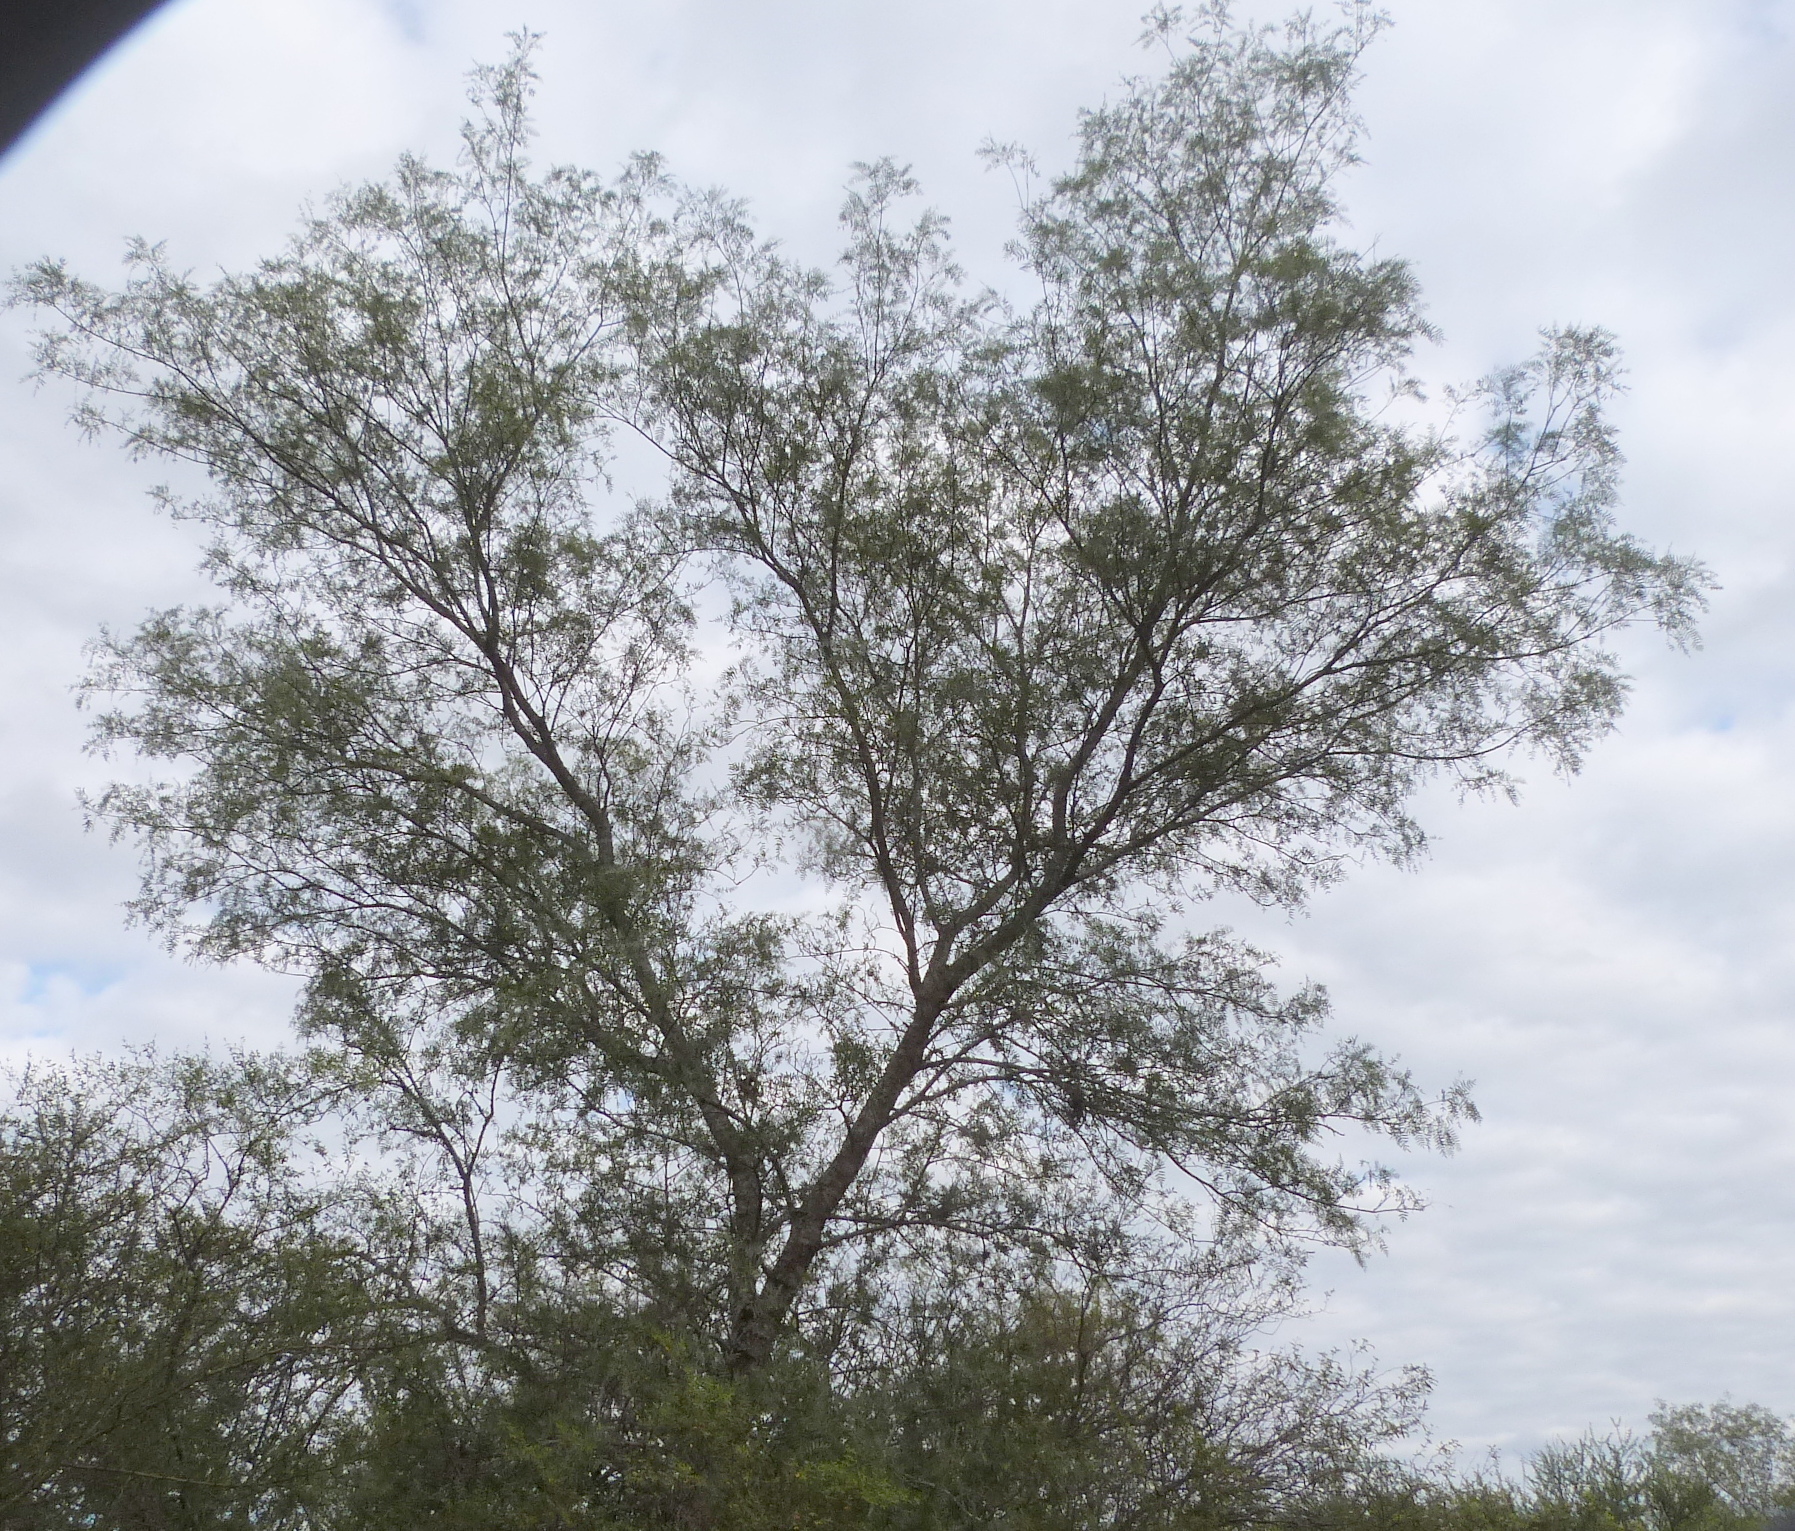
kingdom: Plantae
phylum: Tracheophyta
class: Magnoliopsida
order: Fabales
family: Fabaceae
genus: Prosopis
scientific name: Prosopis vinalillo
